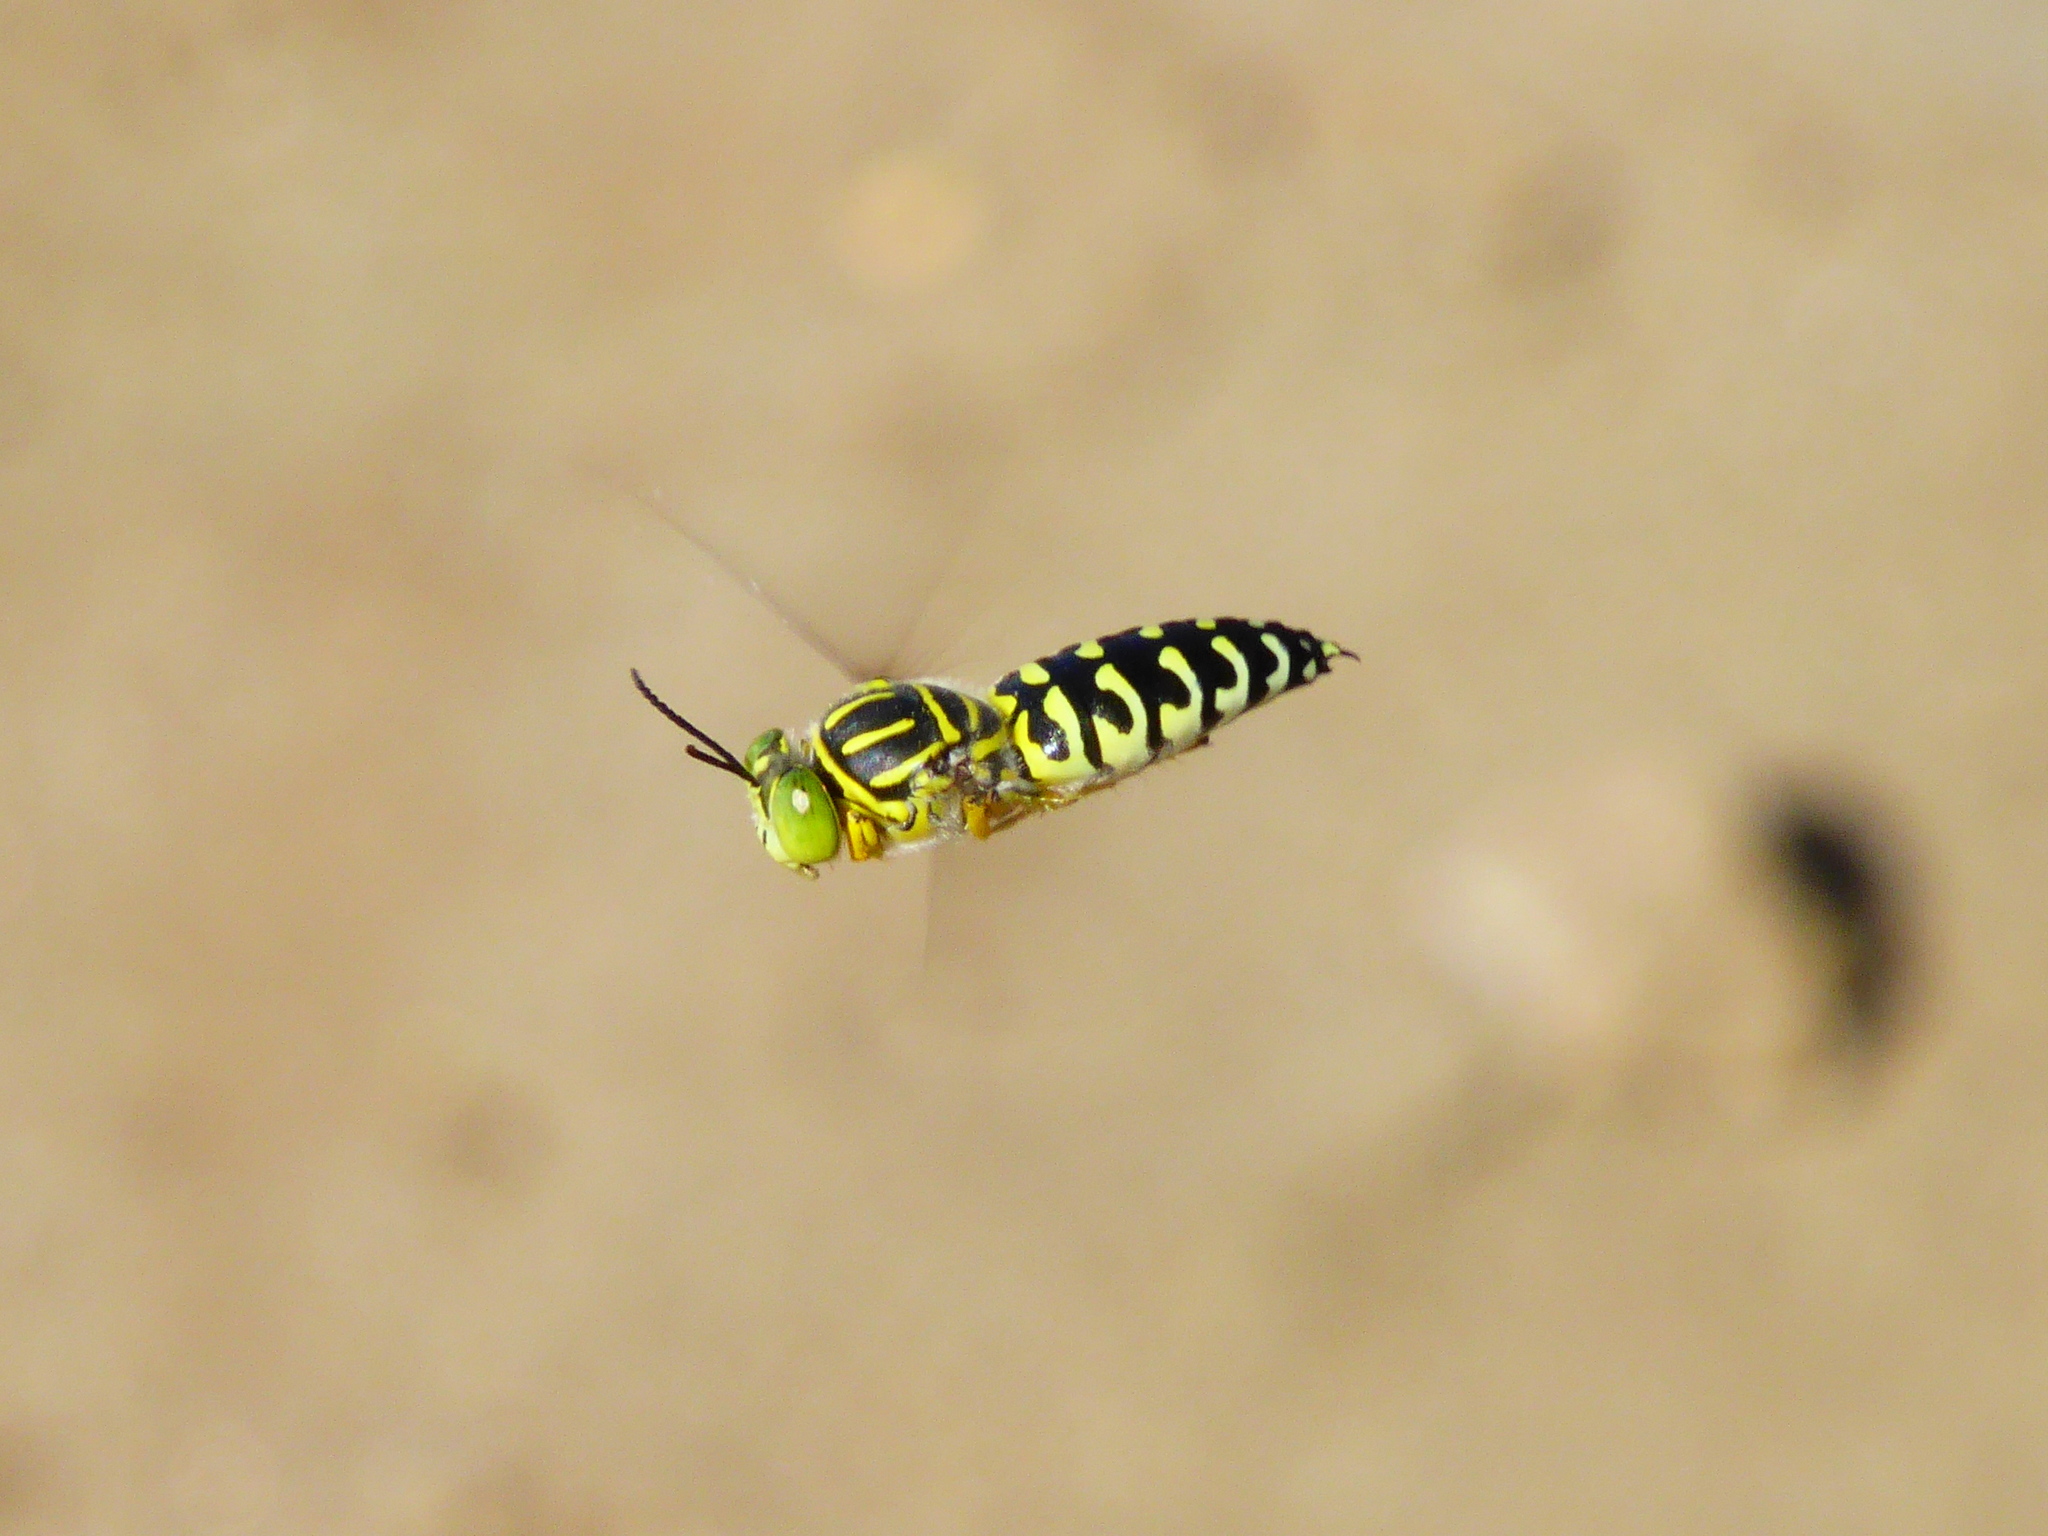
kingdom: Animalia
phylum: Arthropoda
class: Insecta
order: Hymenoptera
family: Crabronidae
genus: Stictia
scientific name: Stictia signata
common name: Sand wasp
